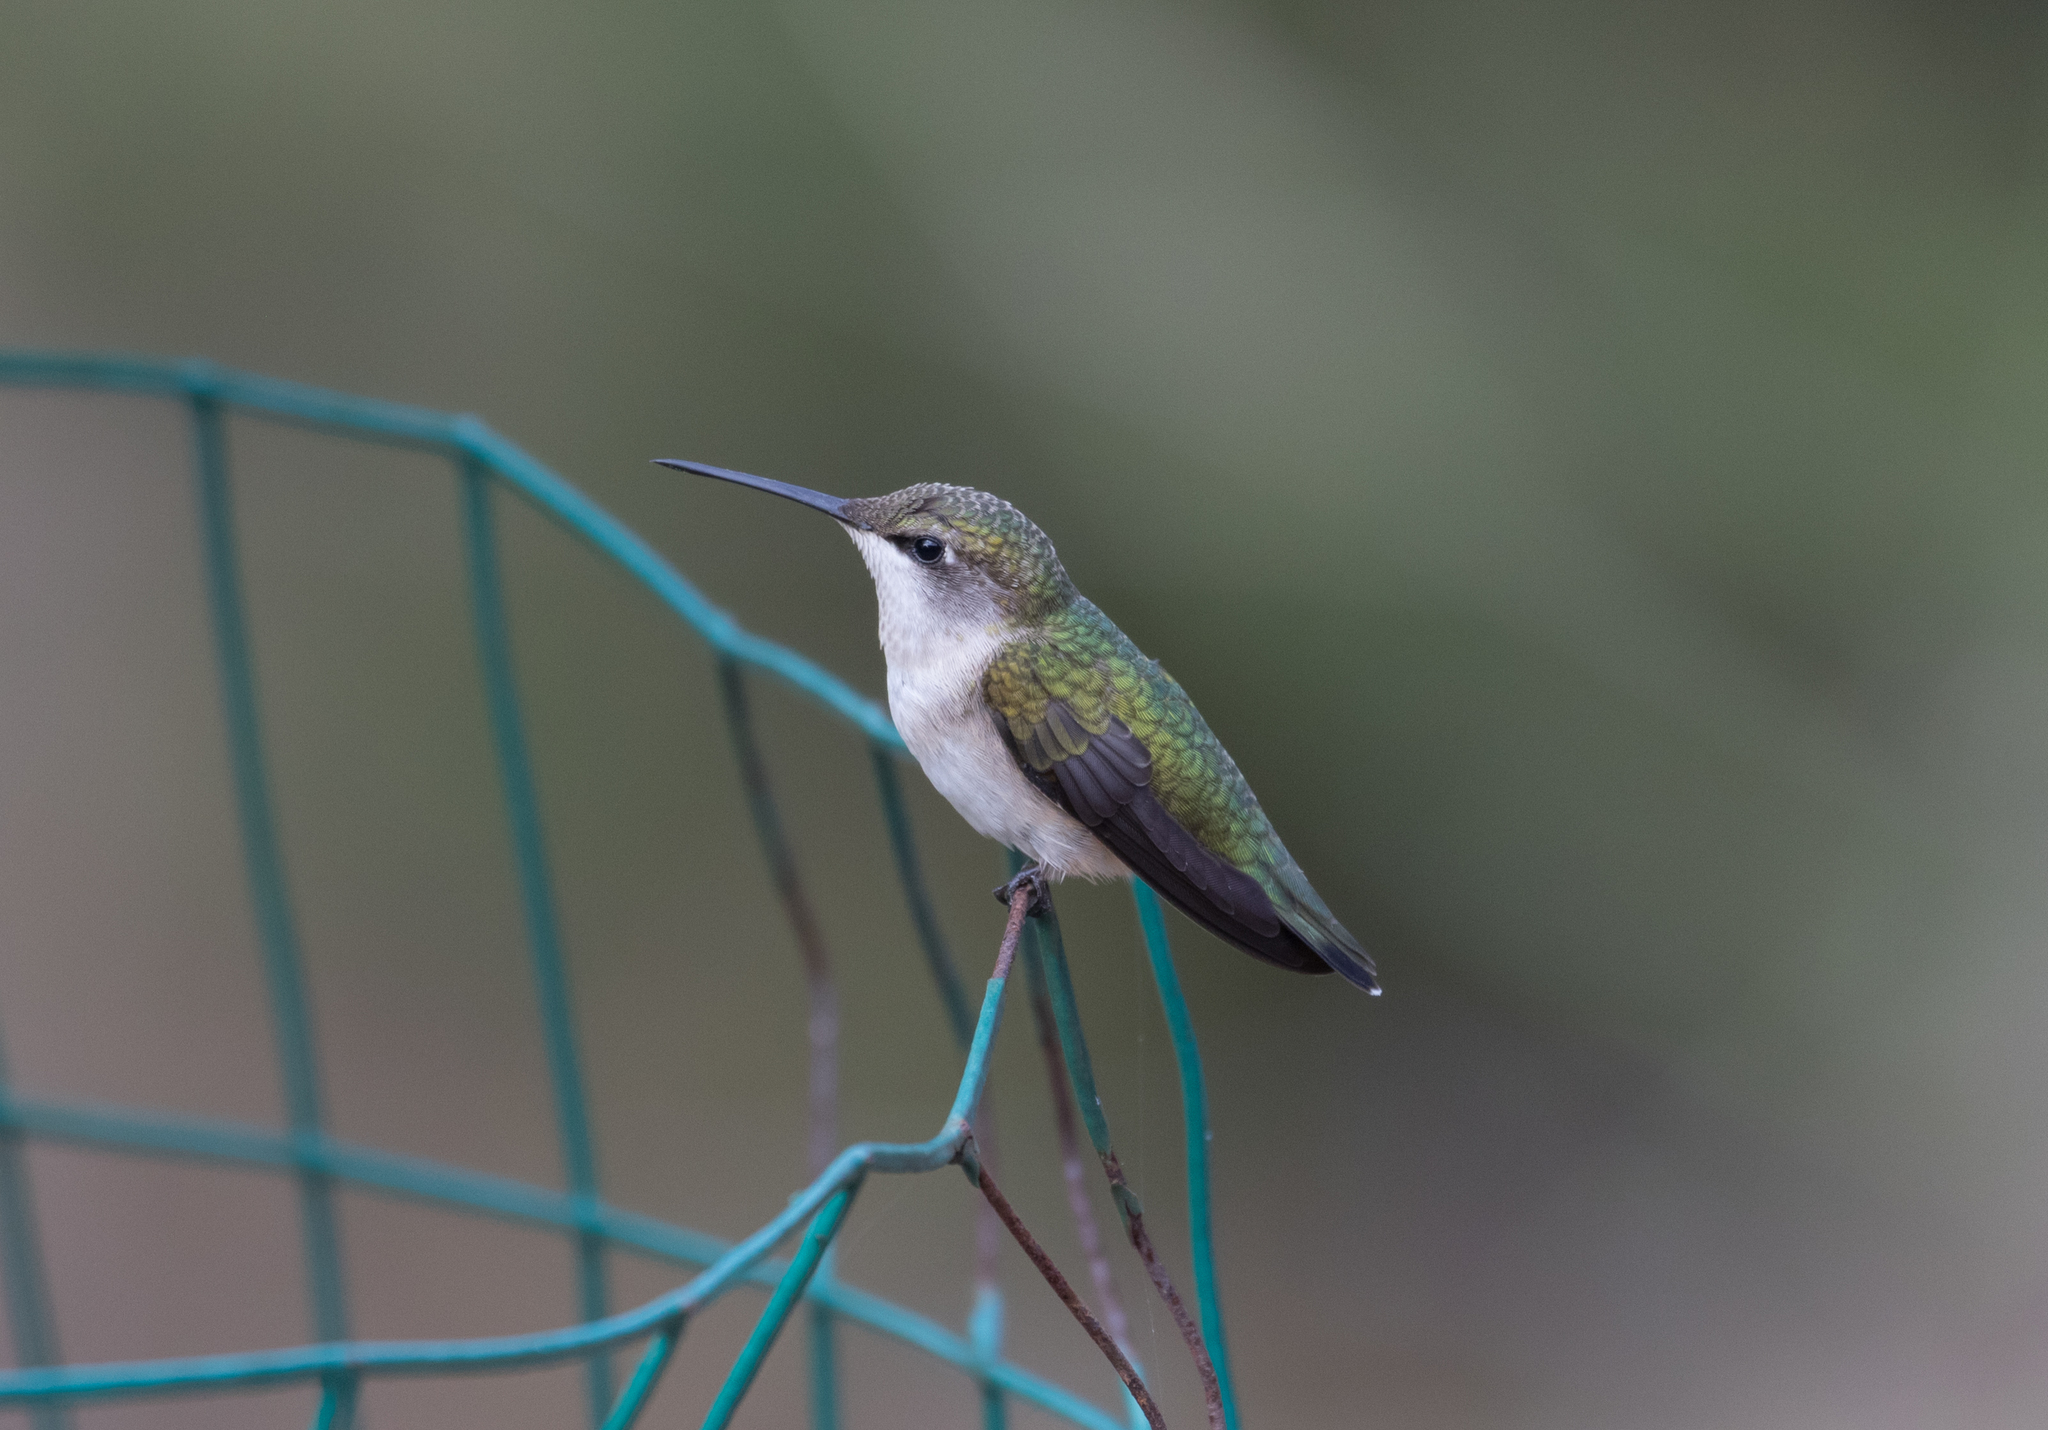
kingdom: Animalia
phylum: Chordata
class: Aves
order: Apodiformes
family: Trochilidae
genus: Archilochus
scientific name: Archilochus colubris
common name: Ruby-throated hummingbird
